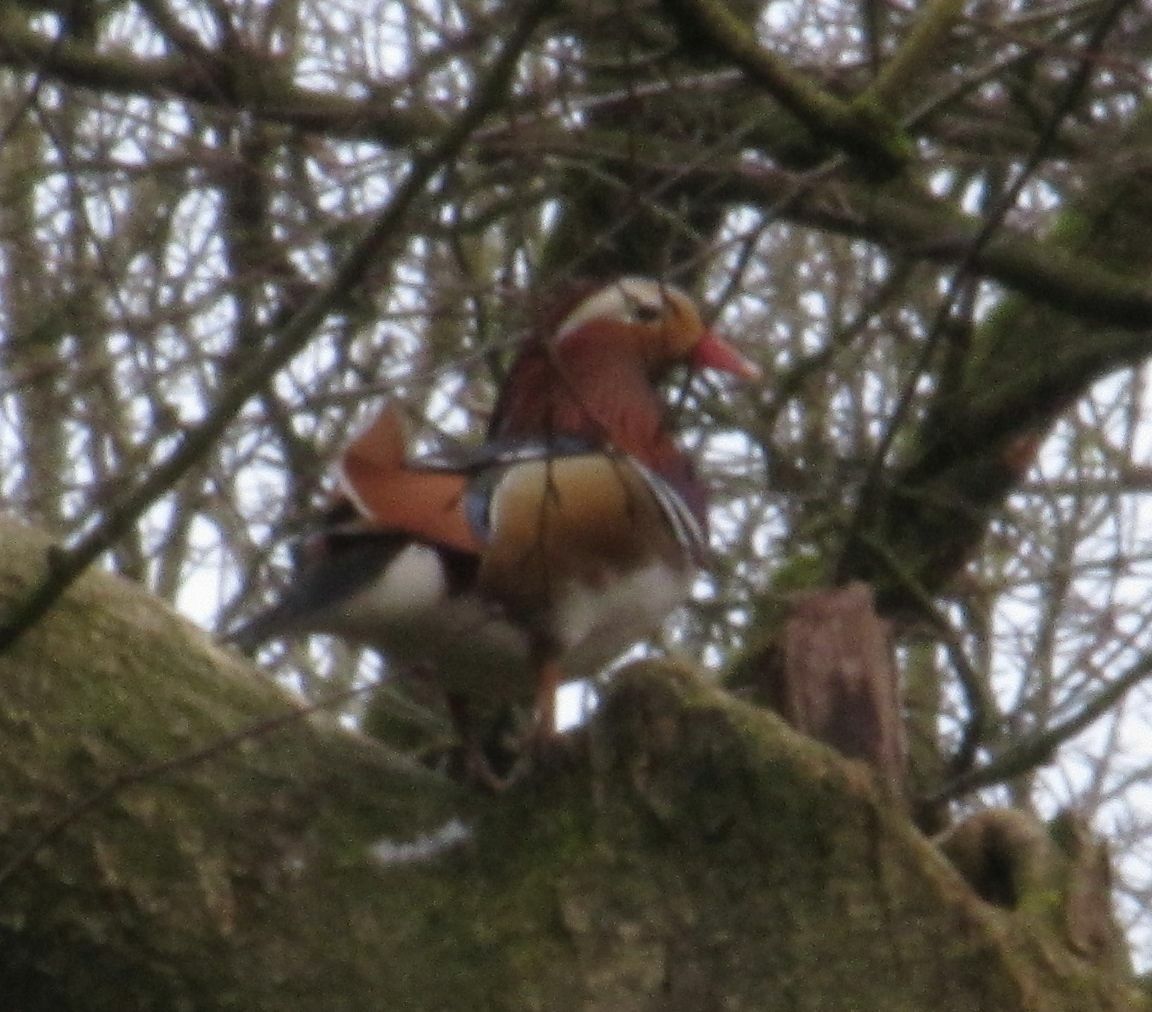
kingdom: Animalia
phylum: Chordata
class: Aves
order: Anseriformes
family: Anatidae
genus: Aix
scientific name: Aix galericulata
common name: Mandarin duck
